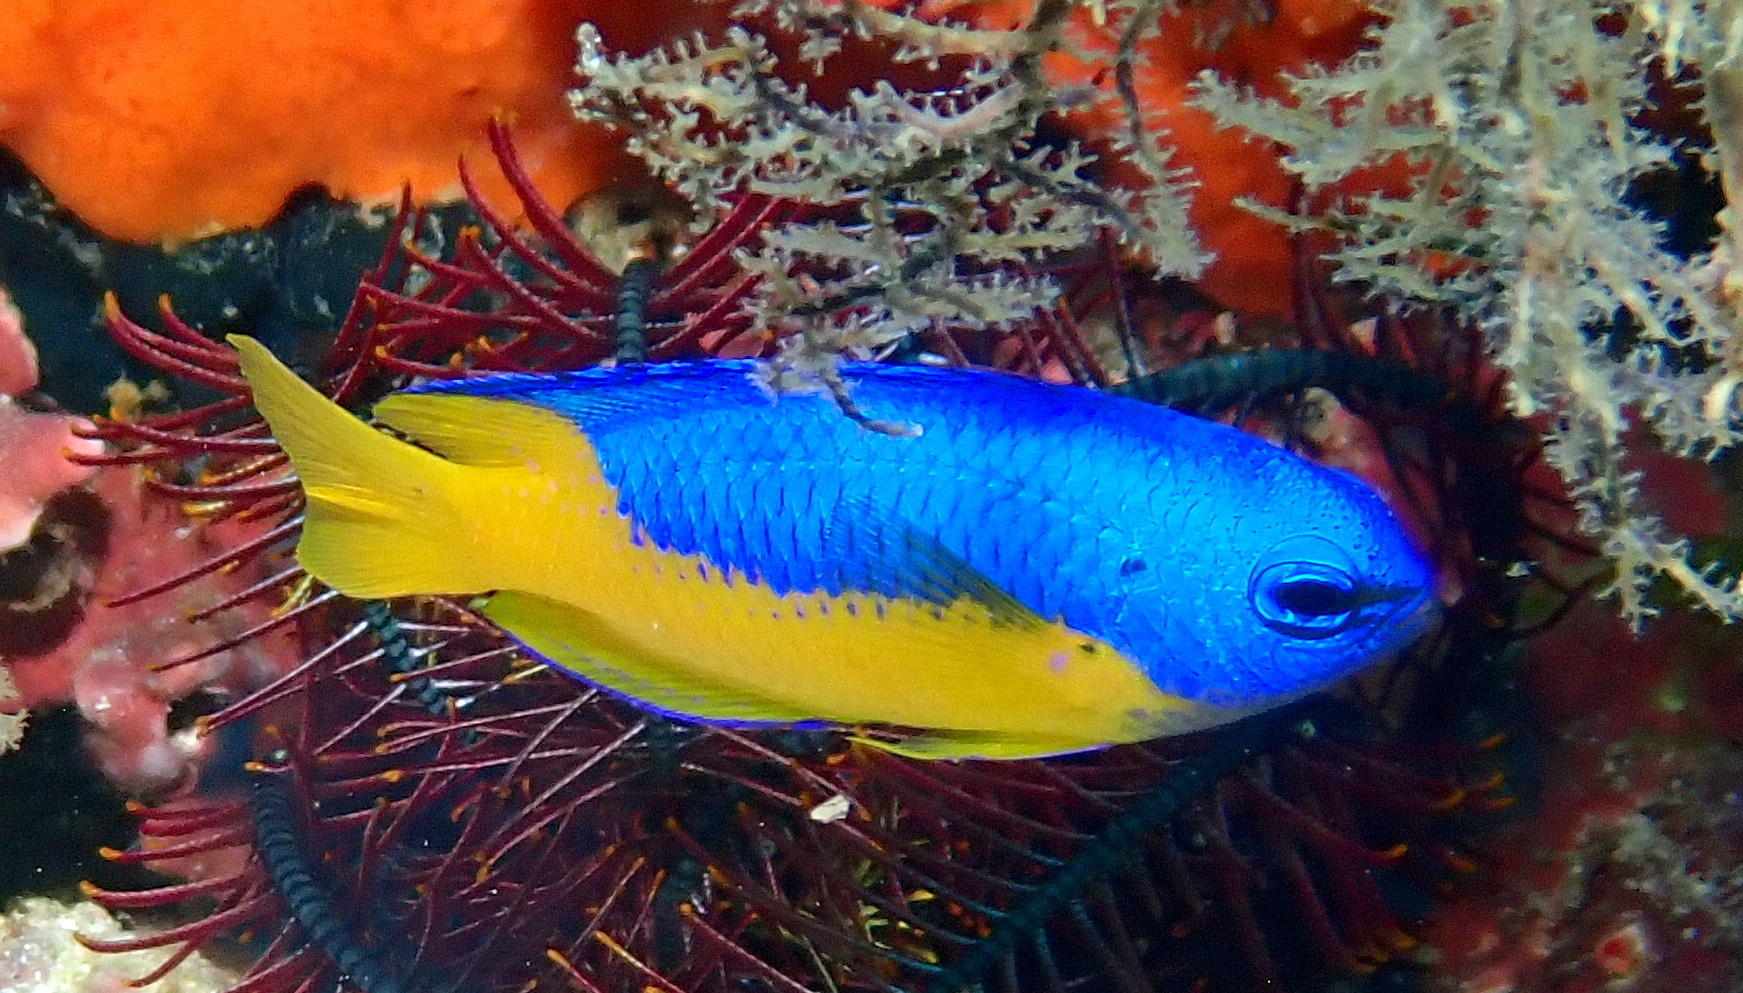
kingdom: Animalia
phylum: Chordata
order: Perciformes
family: Pomacentridae
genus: Pomacentrus
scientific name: Pomacentrus auriventris
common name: Goldbelly damsel
